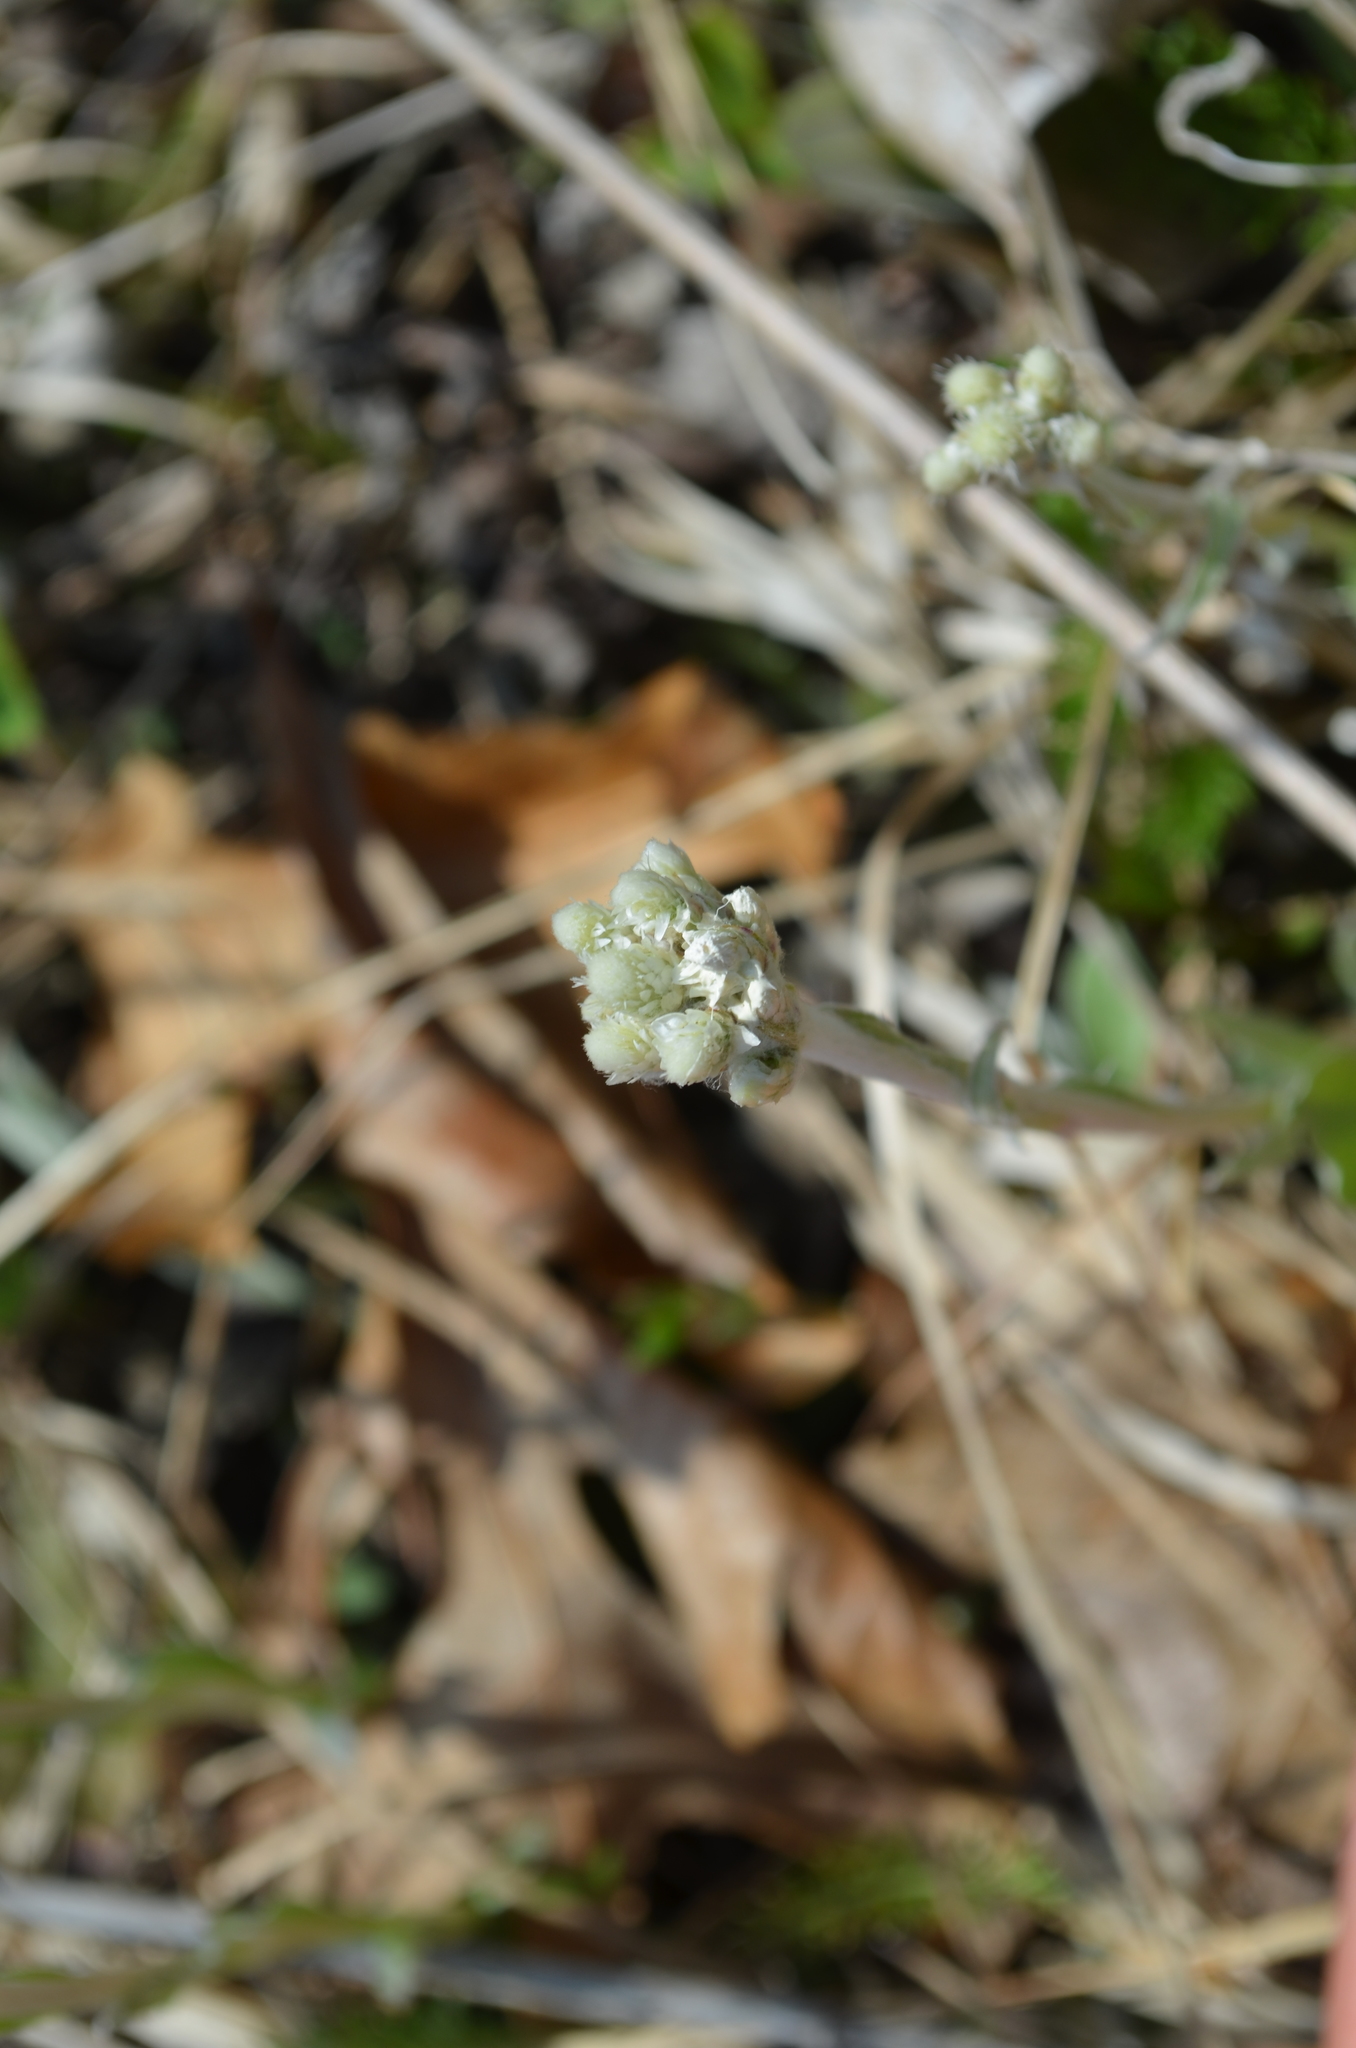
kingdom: Plantae
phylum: Tracheophyta
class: Magnoliopsida
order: Asterales
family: Asteraceae
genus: Antennaria
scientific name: Antennaria neglecta
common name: Field pussytoes
